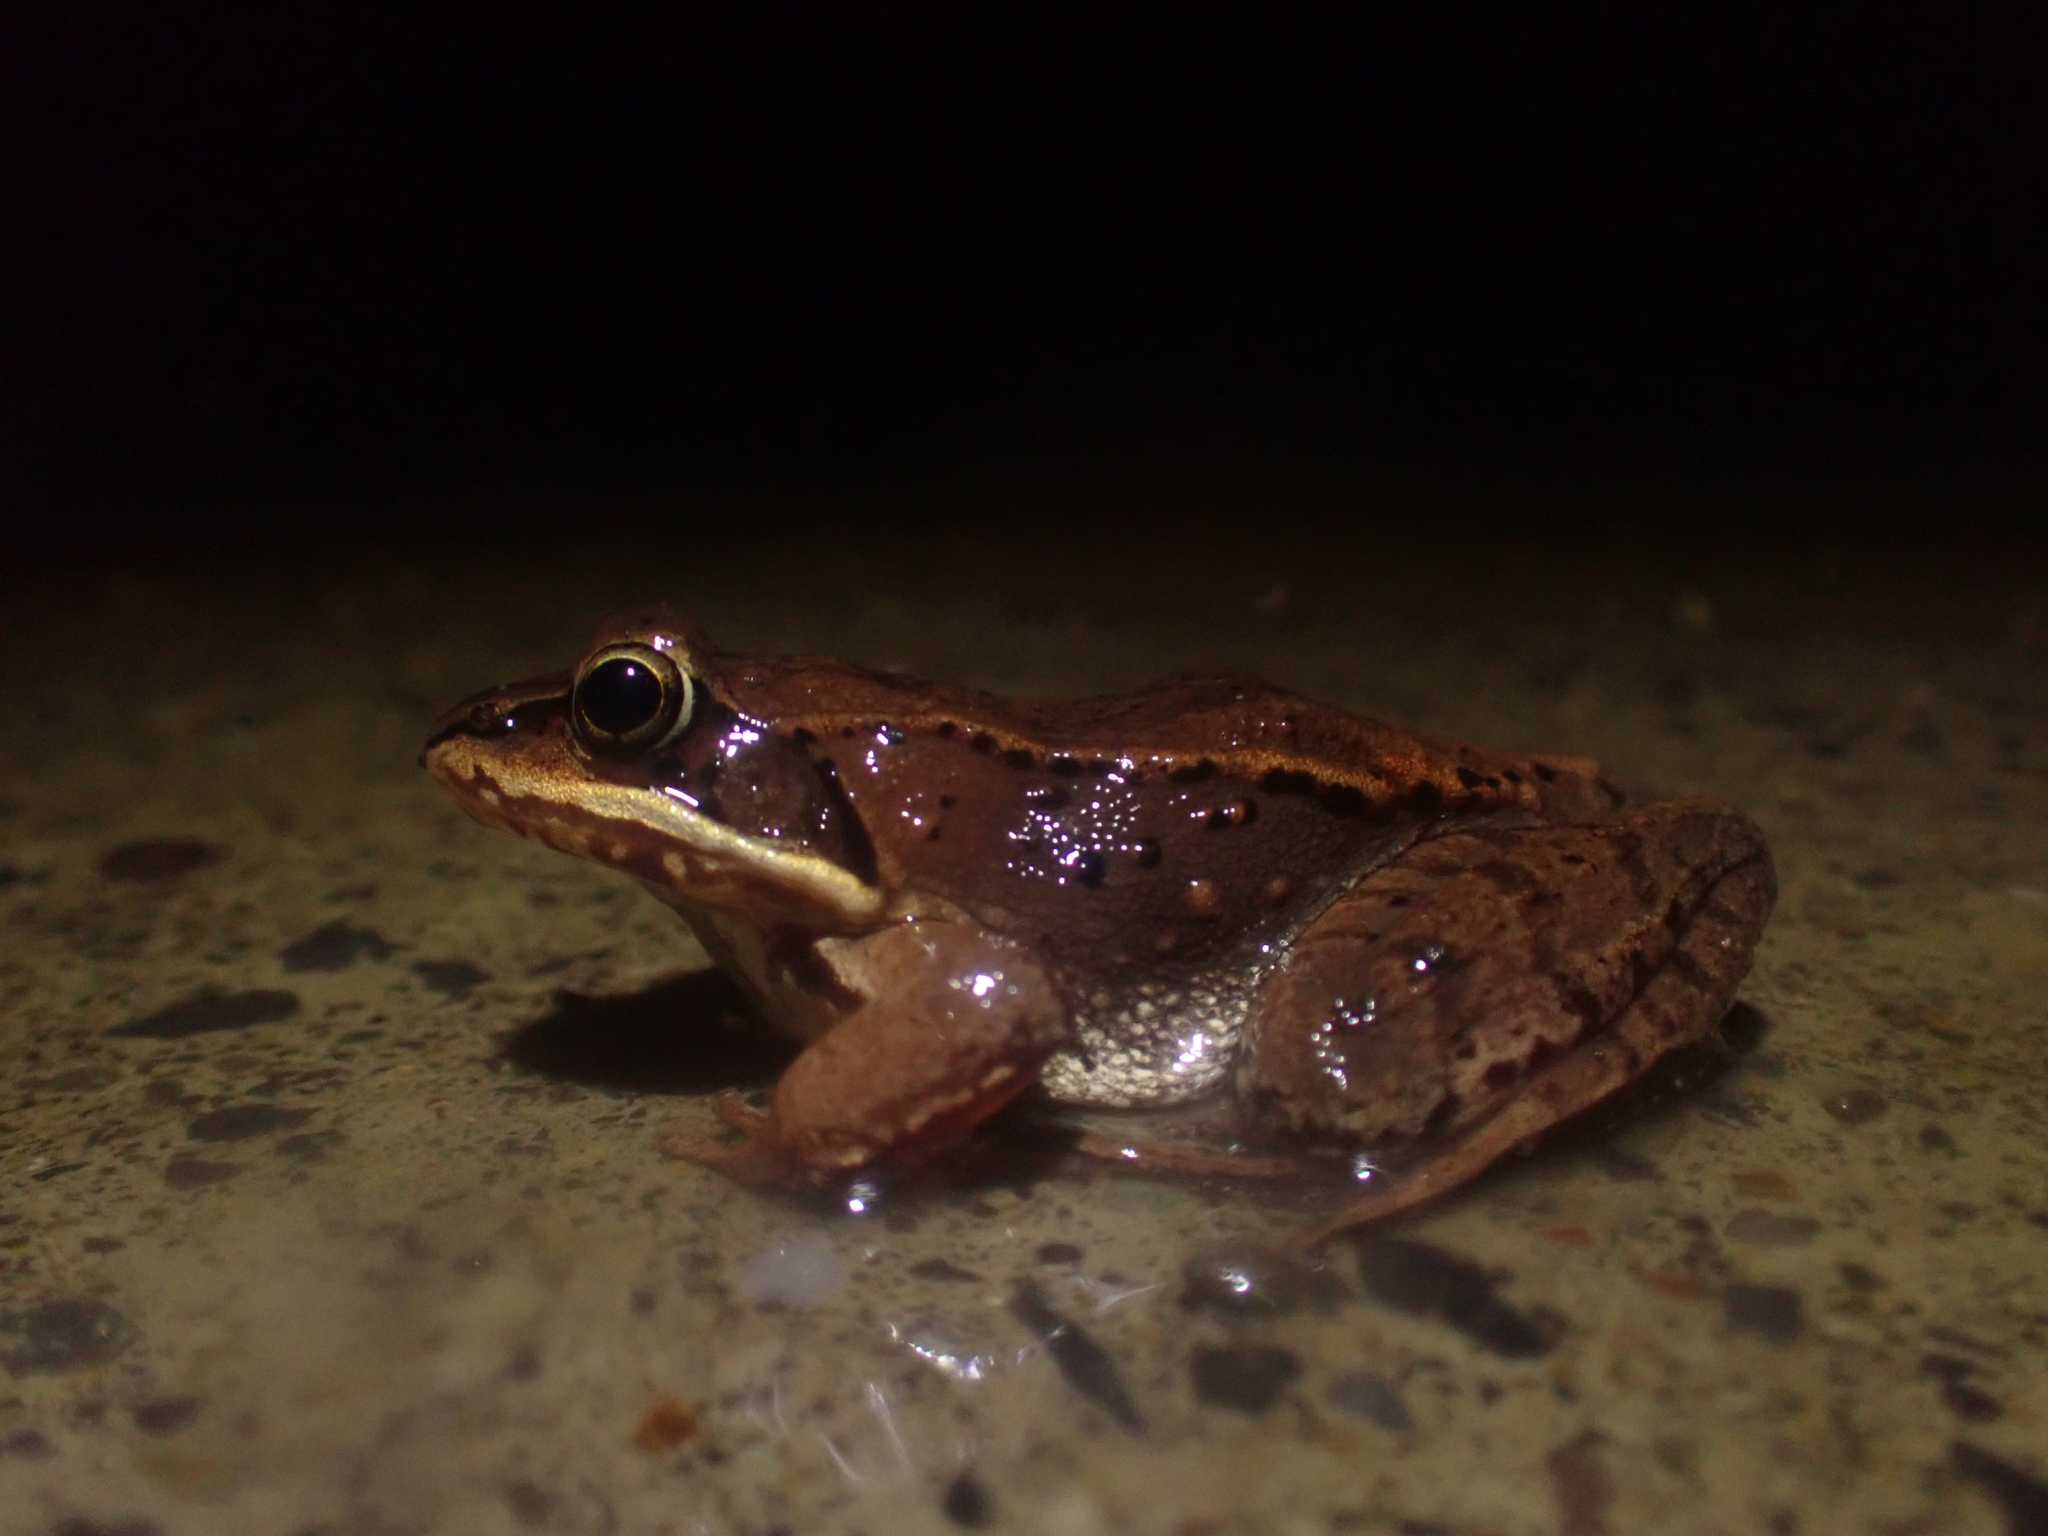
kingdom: Animalia
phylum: Chordata
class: Amphibia
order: Anura
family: Ranidae
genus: Lithobates
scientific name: Lithobates sylvaticus
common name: Wood frog
